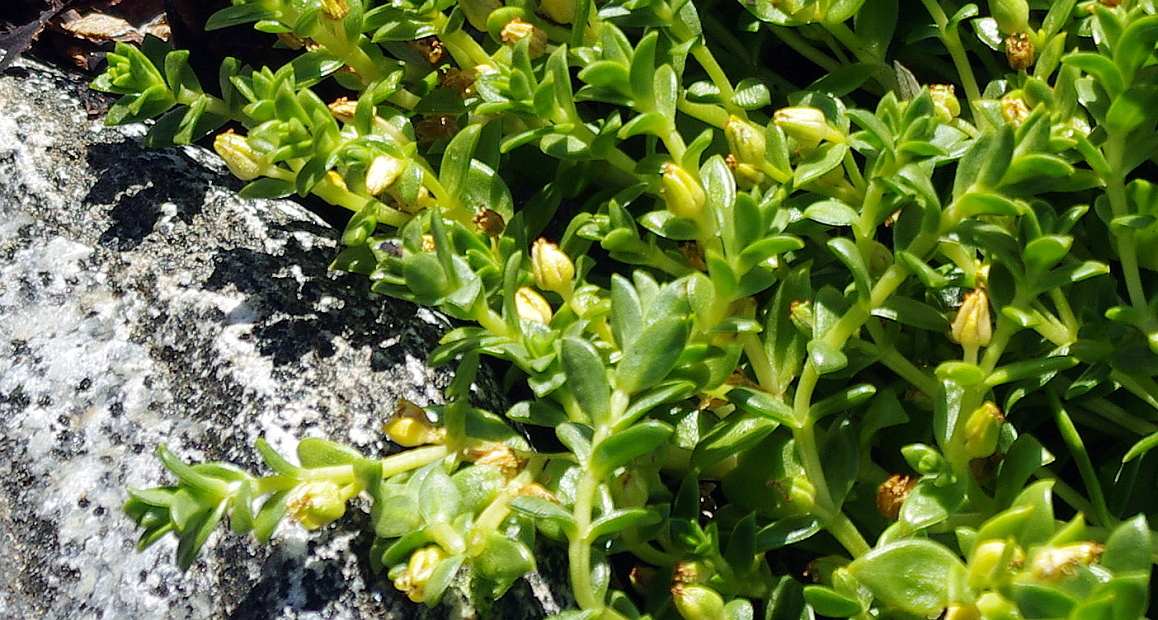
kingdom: Plantae
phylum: Tracheophyta
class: Magnoliopsida
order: Caryophyllales
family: Caryophyllaceae
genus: Honckenya
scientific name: Honckenya peploides
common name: Sea sandwort
